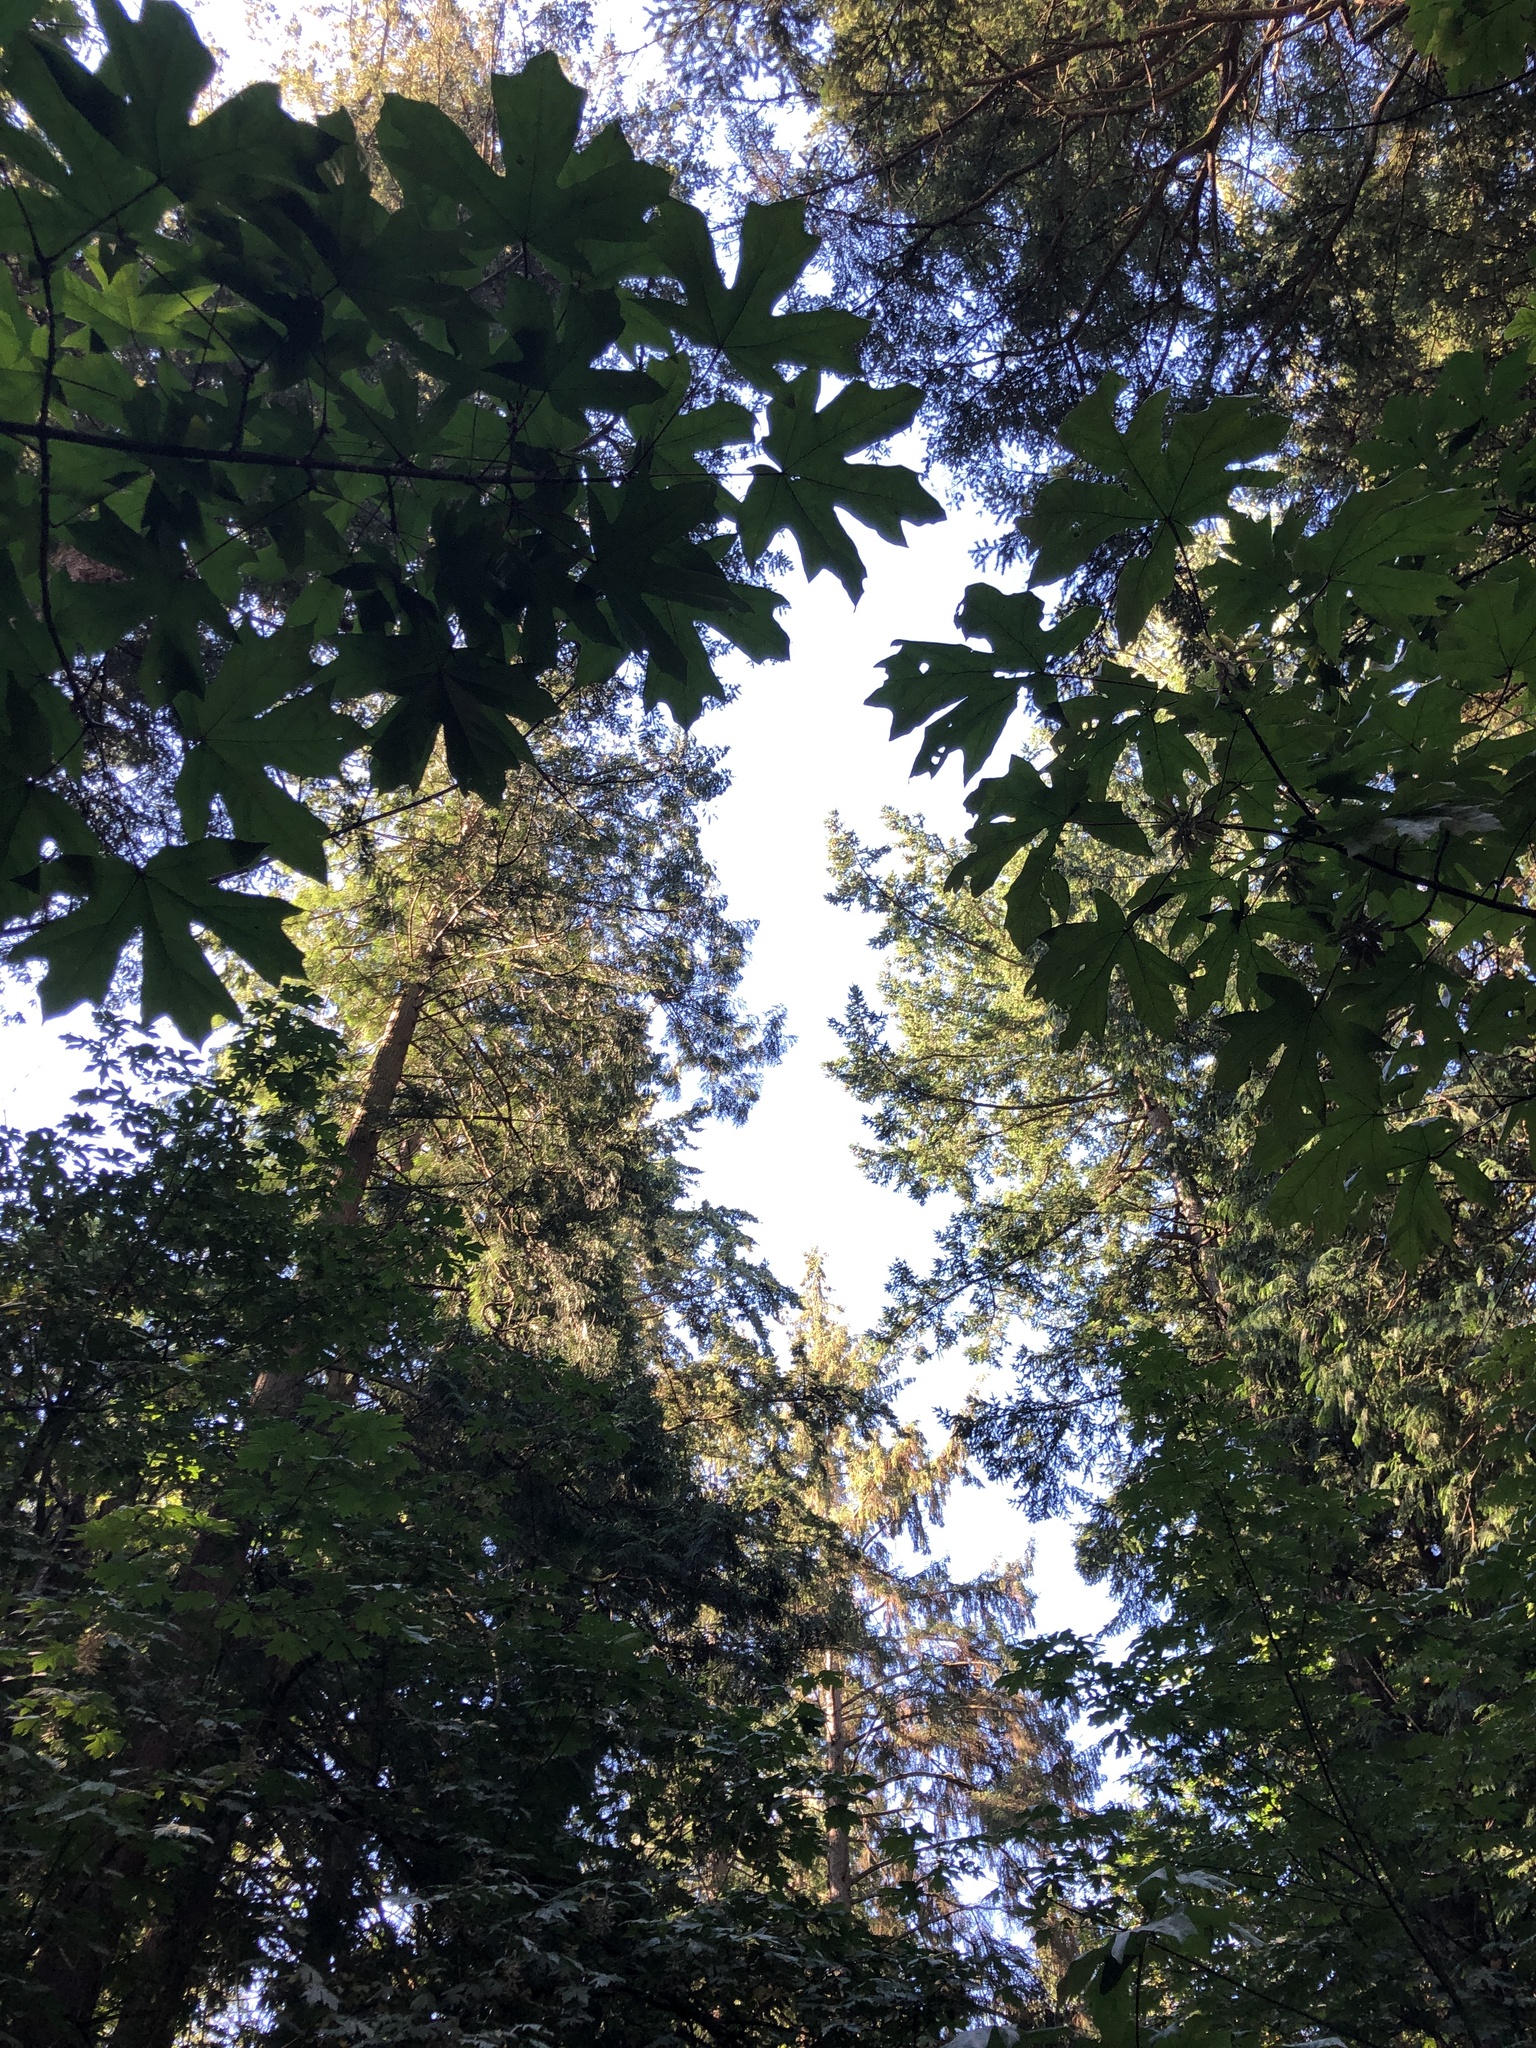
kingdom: Plantae
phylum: Tracheophyta
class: Pinopsida
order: Pinales
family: Pinaceae
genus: Picea
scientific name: Picea sitchensis
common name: Sitka spruce
